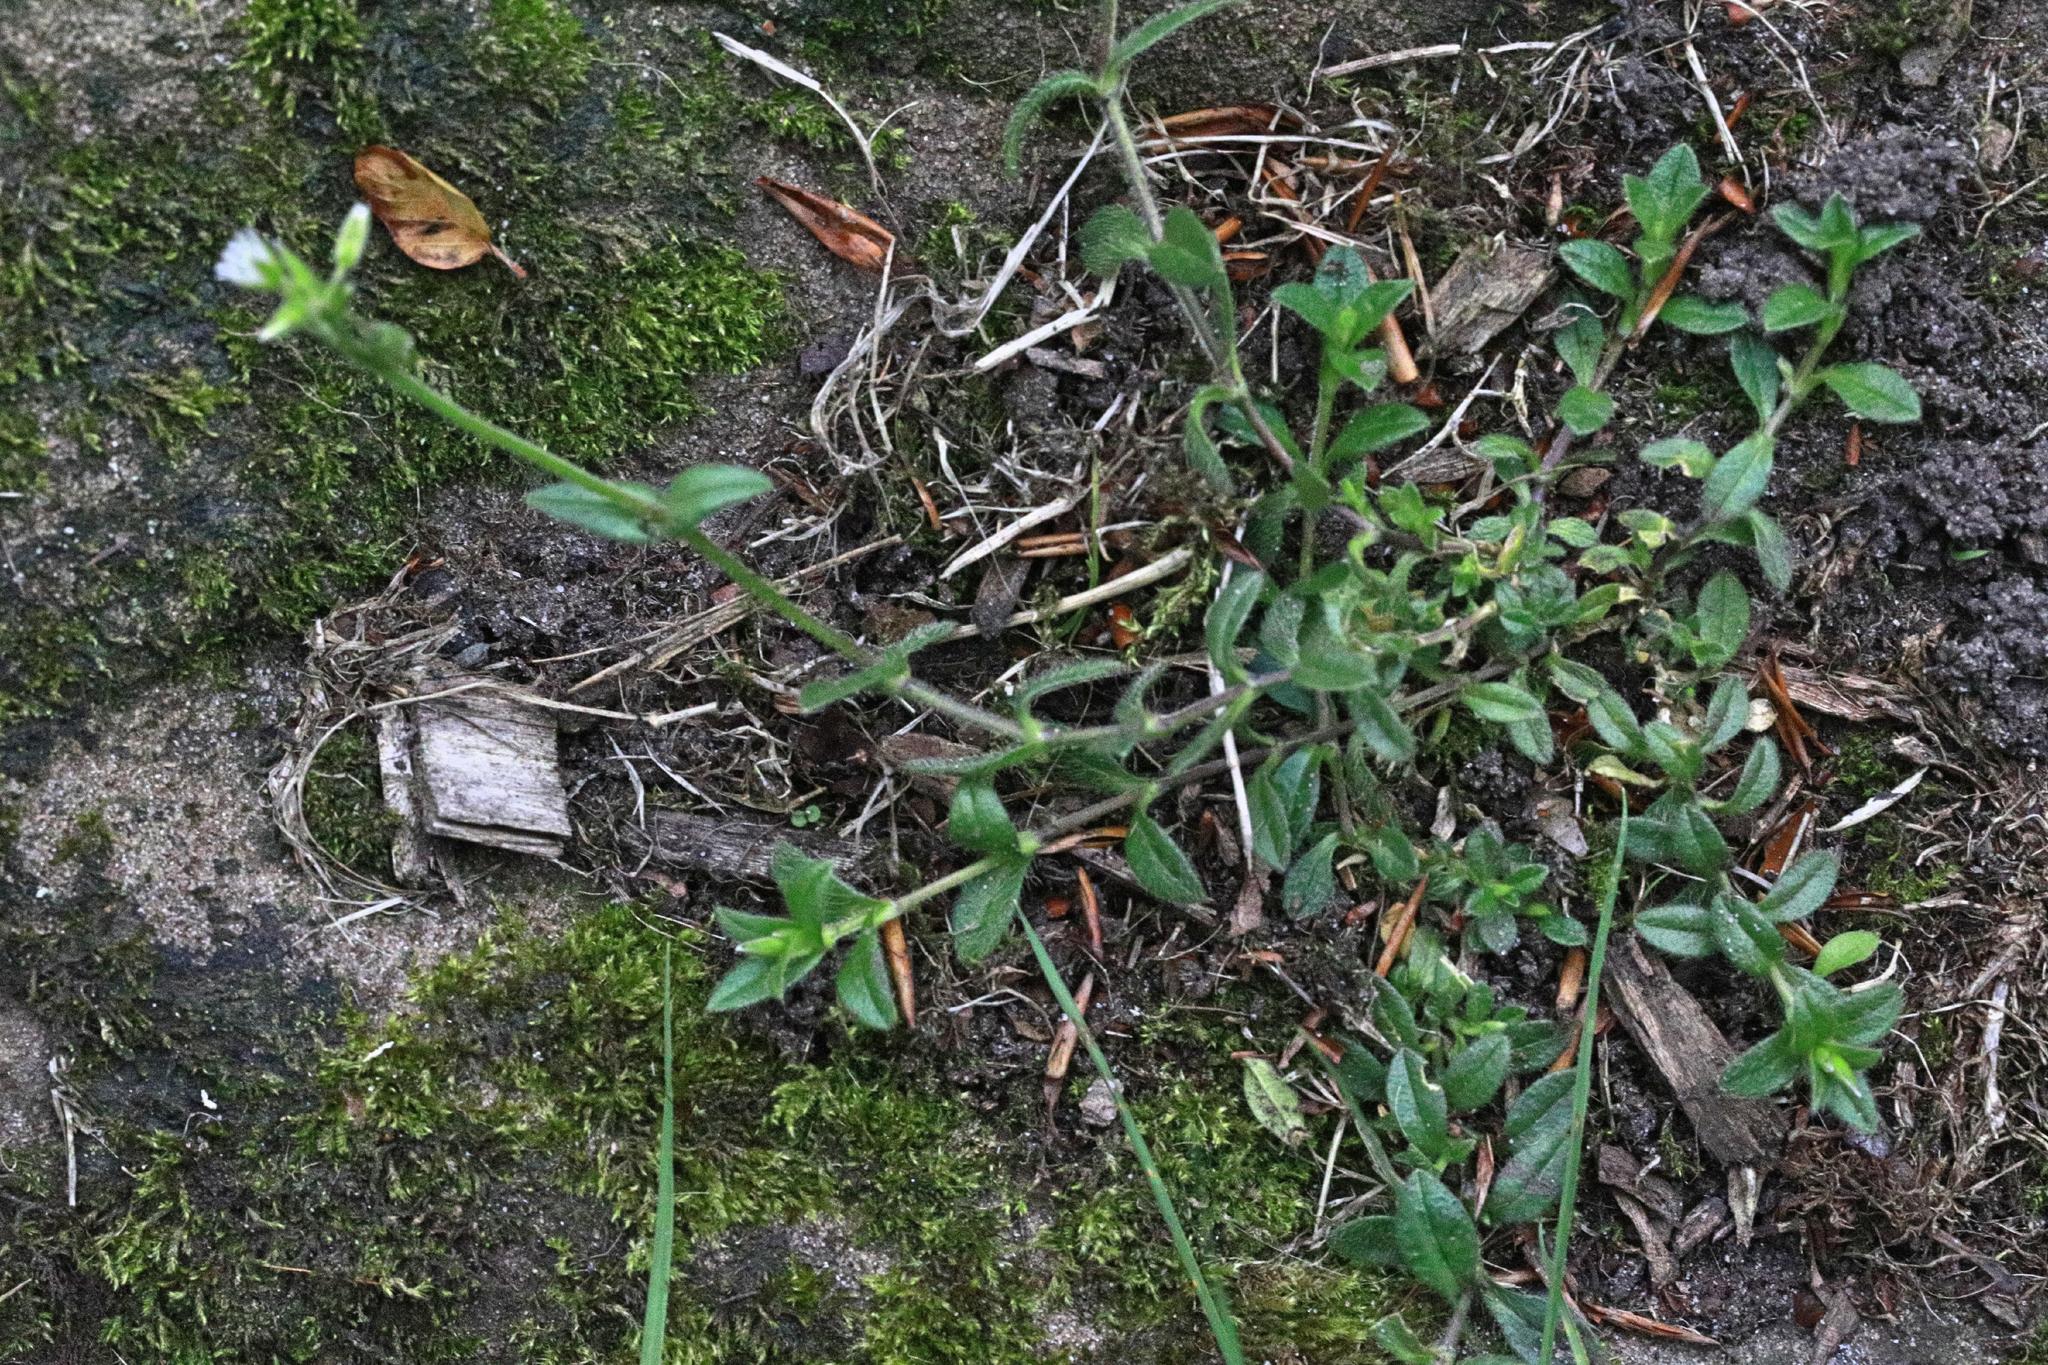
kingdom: Plantae
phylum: Tracheophyta
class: Magnoliopsida
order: Caryophyllales
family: Caryophyllaceae
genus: Cerastium
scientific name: Cerastium fontanum
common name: Common mouse-ear
